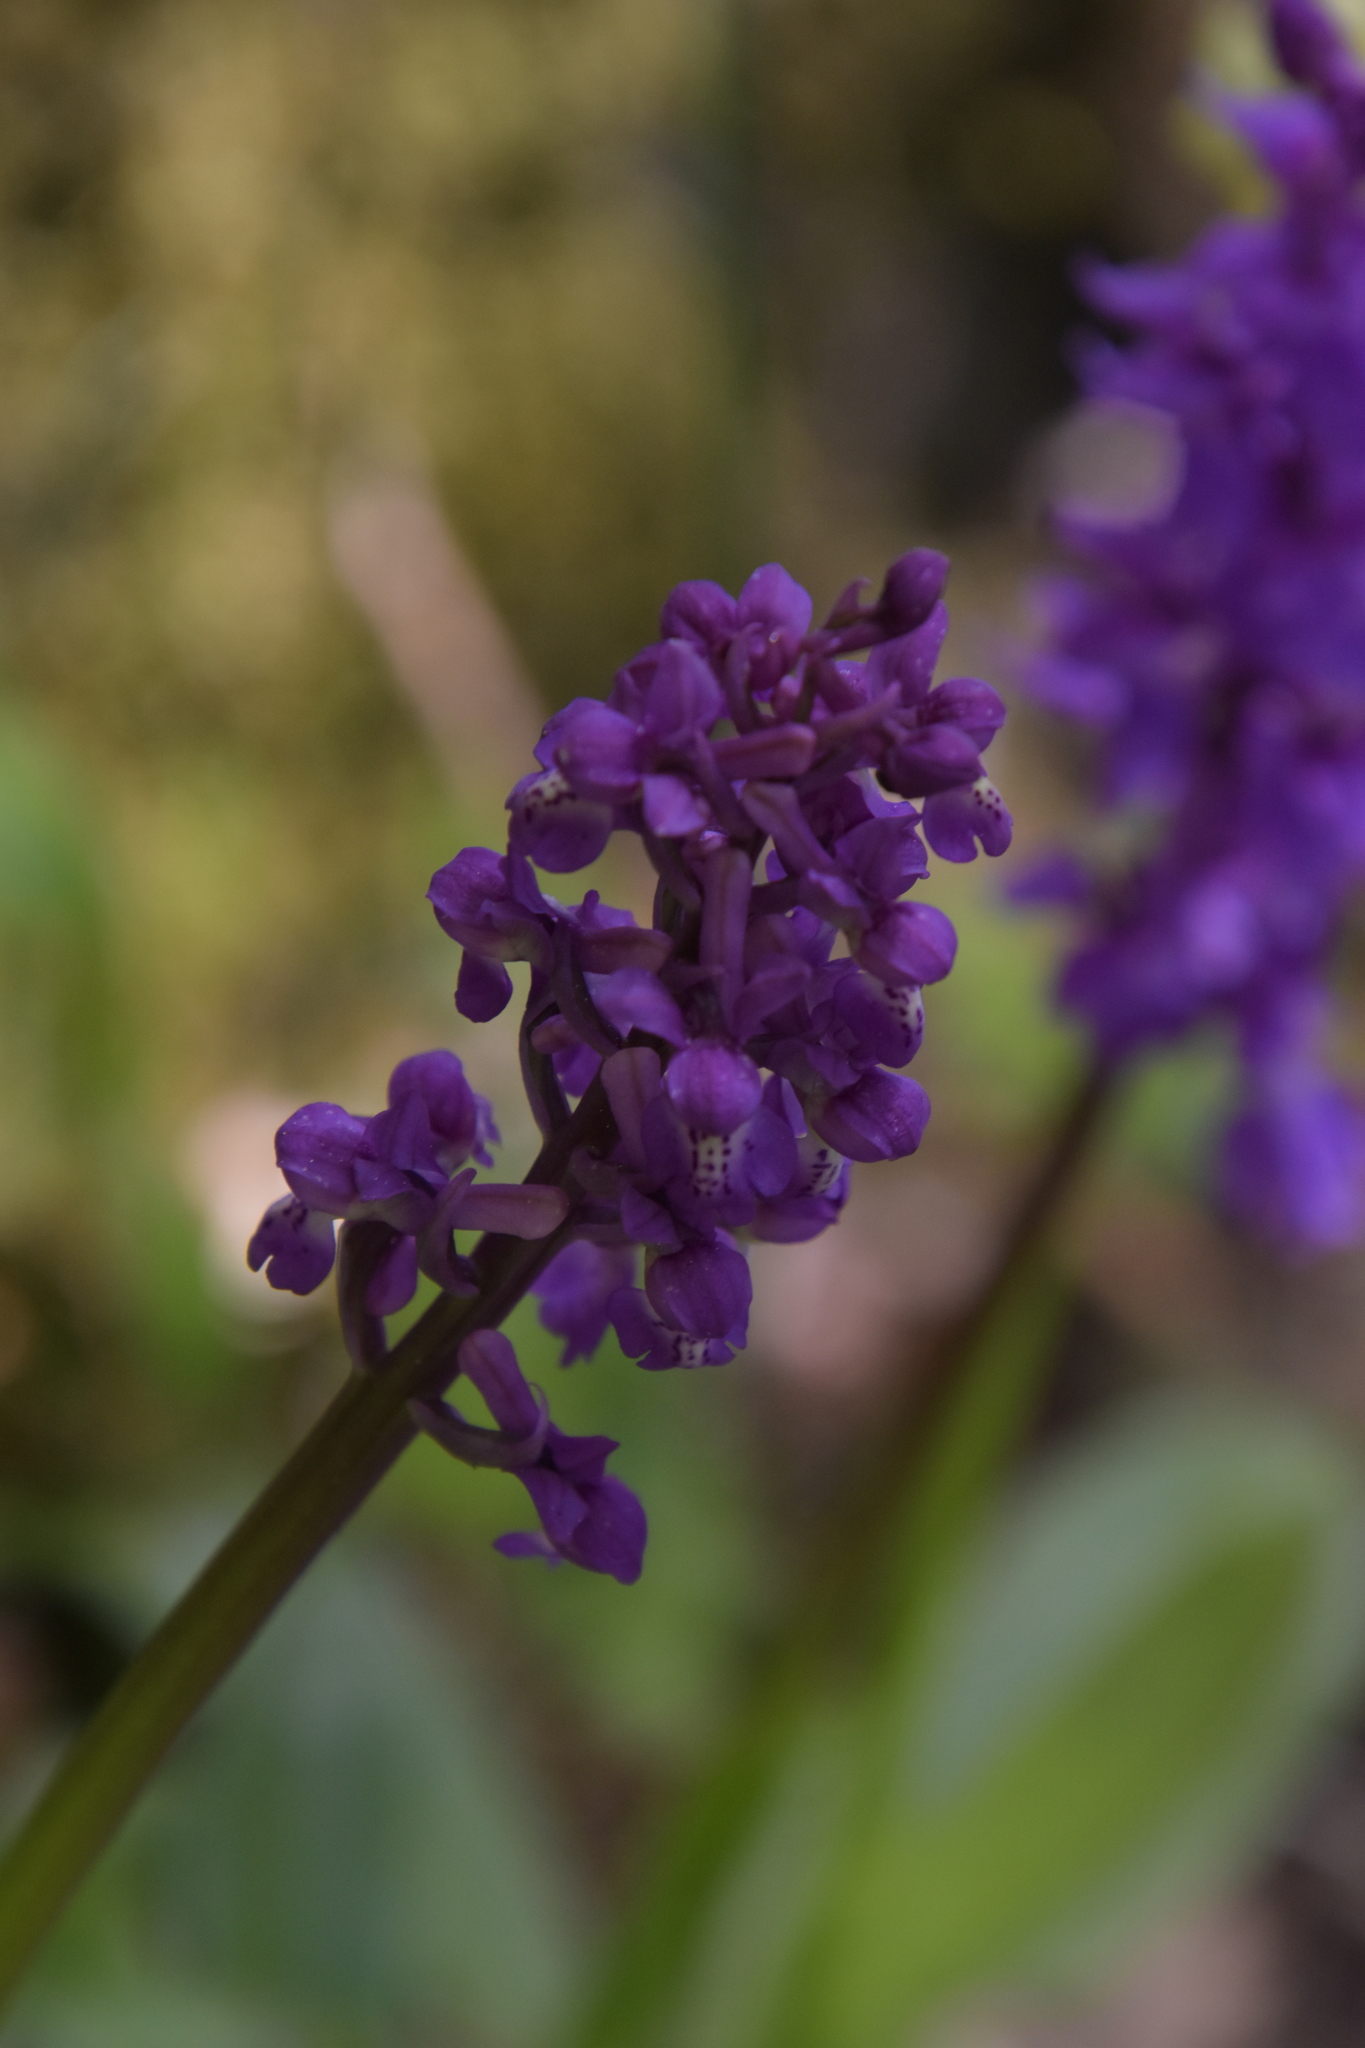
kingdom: Plantae
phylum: Tracheophyta
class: Liliopsida
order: Asparagales
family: Orchidaceae
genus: Anacamptis
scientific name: Anacamptis morio
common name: Green-winged orchid
